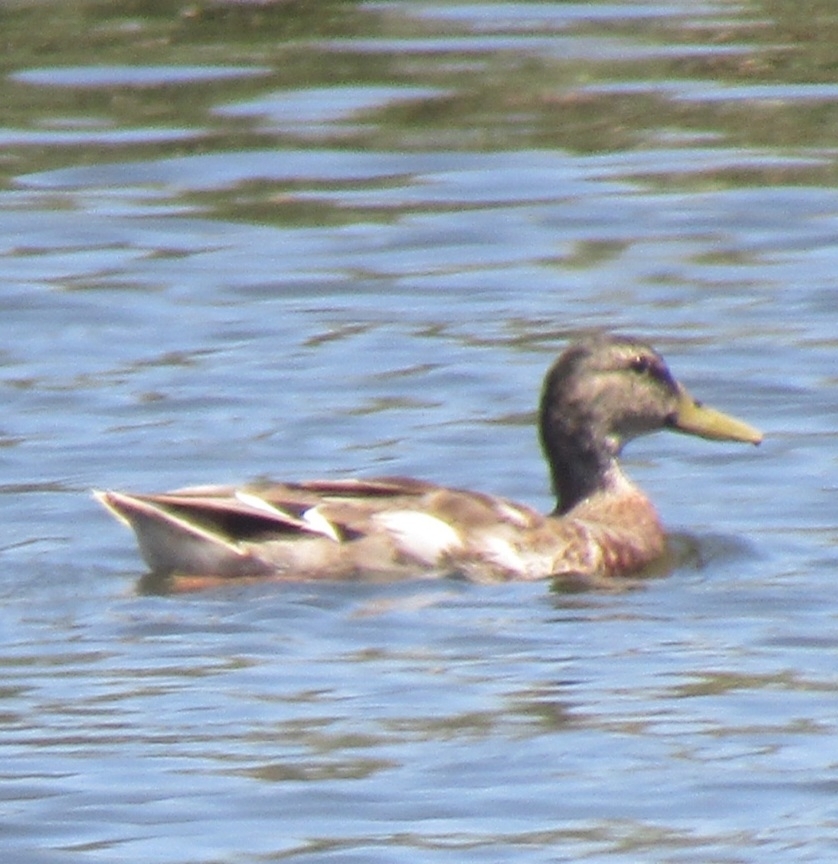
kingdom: Animalia
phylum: Chordata
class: Aves
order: Anseriformes
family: Anatidae
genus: Anas
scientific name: Anas platyrhynchos
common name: Mallard
